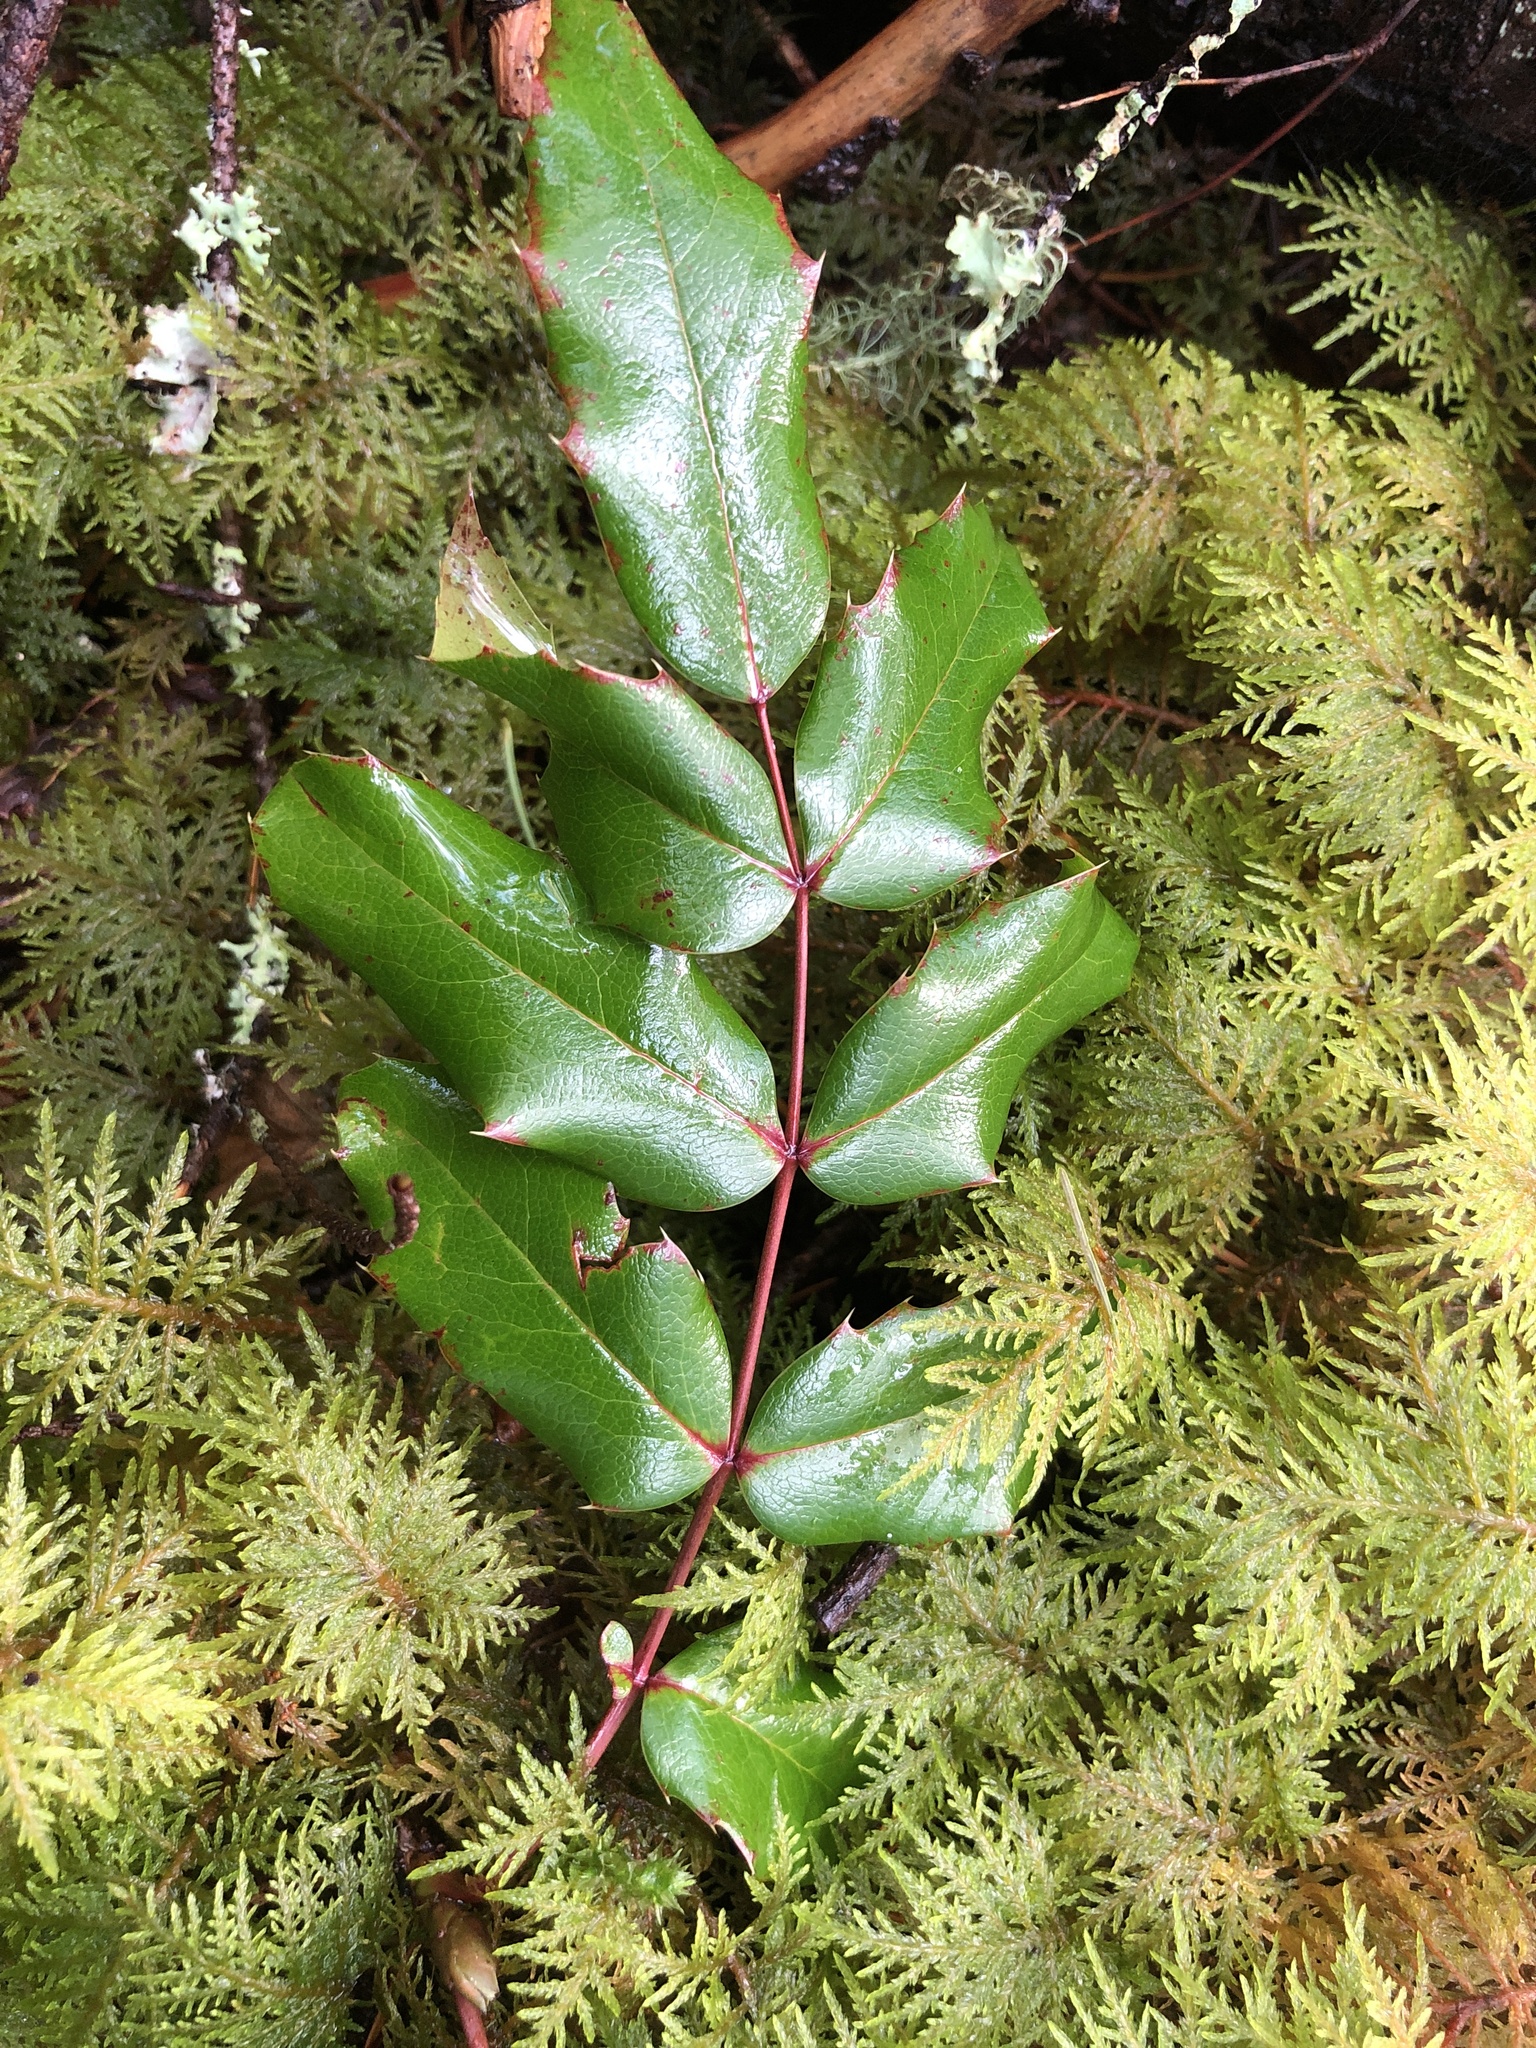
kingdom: Plantae
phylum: Tracheophyta
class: Magnoliopsida
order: Ranunculales
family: Berberidaceae
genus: Mahonia
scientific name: Mahonia aquifolium
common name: Oregon-grape
